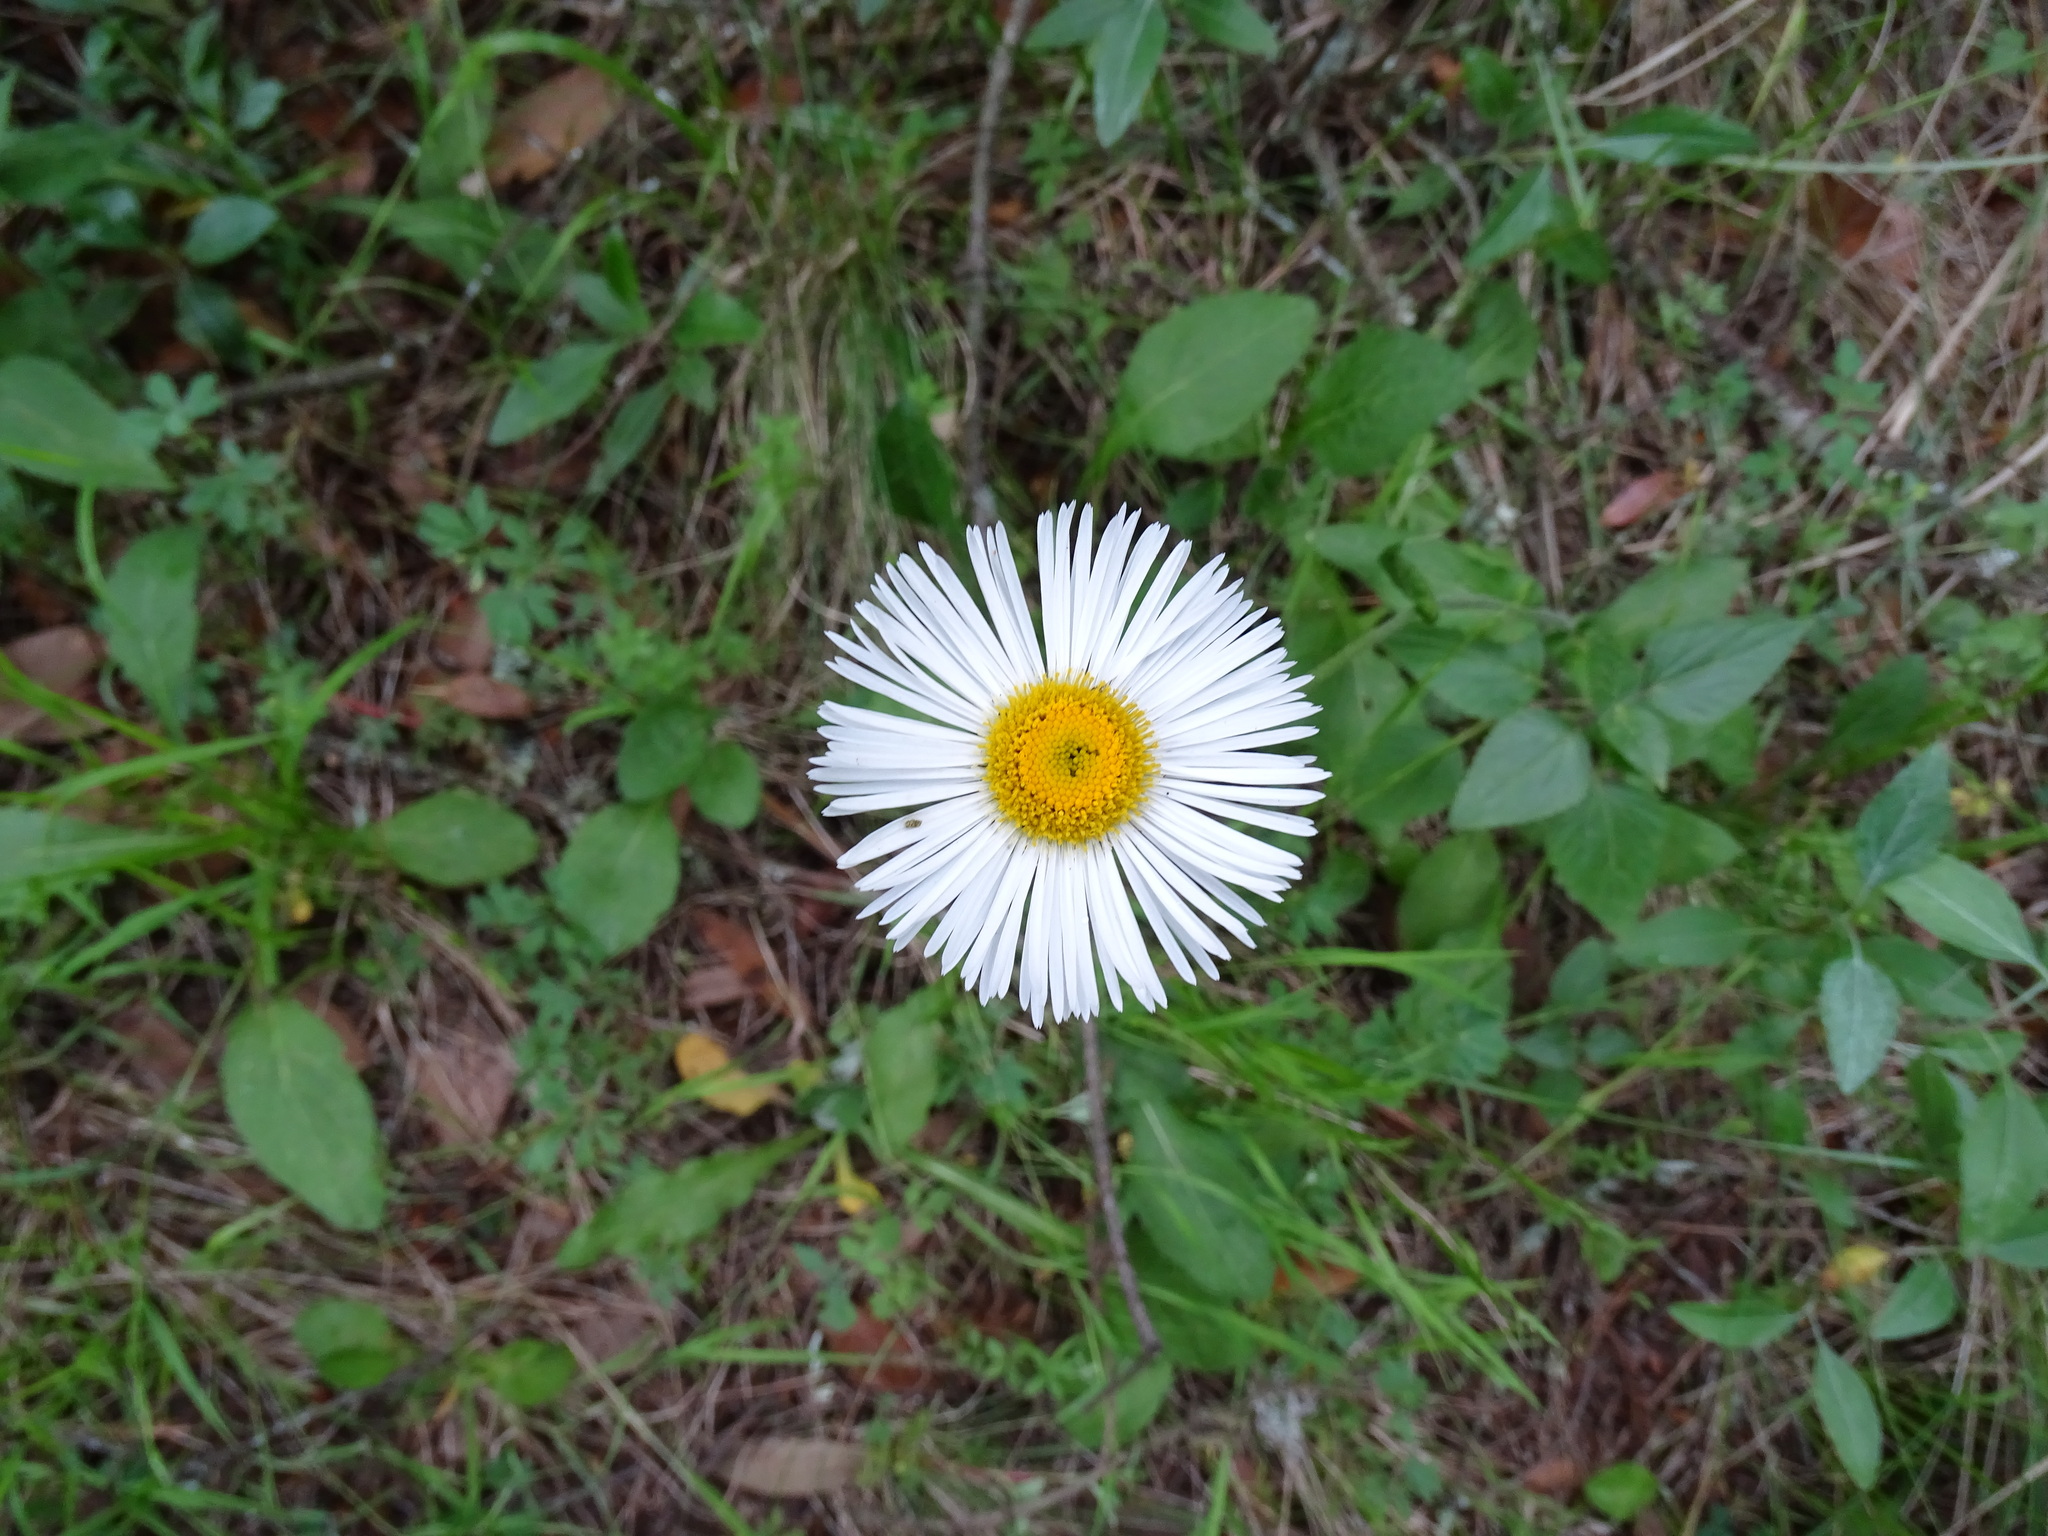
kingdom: Plantae
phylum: Tracheophyta
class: Magnoliopsida
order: Asterales
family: Asteraceae
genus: Erigeron
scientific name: Erigeron longipes
